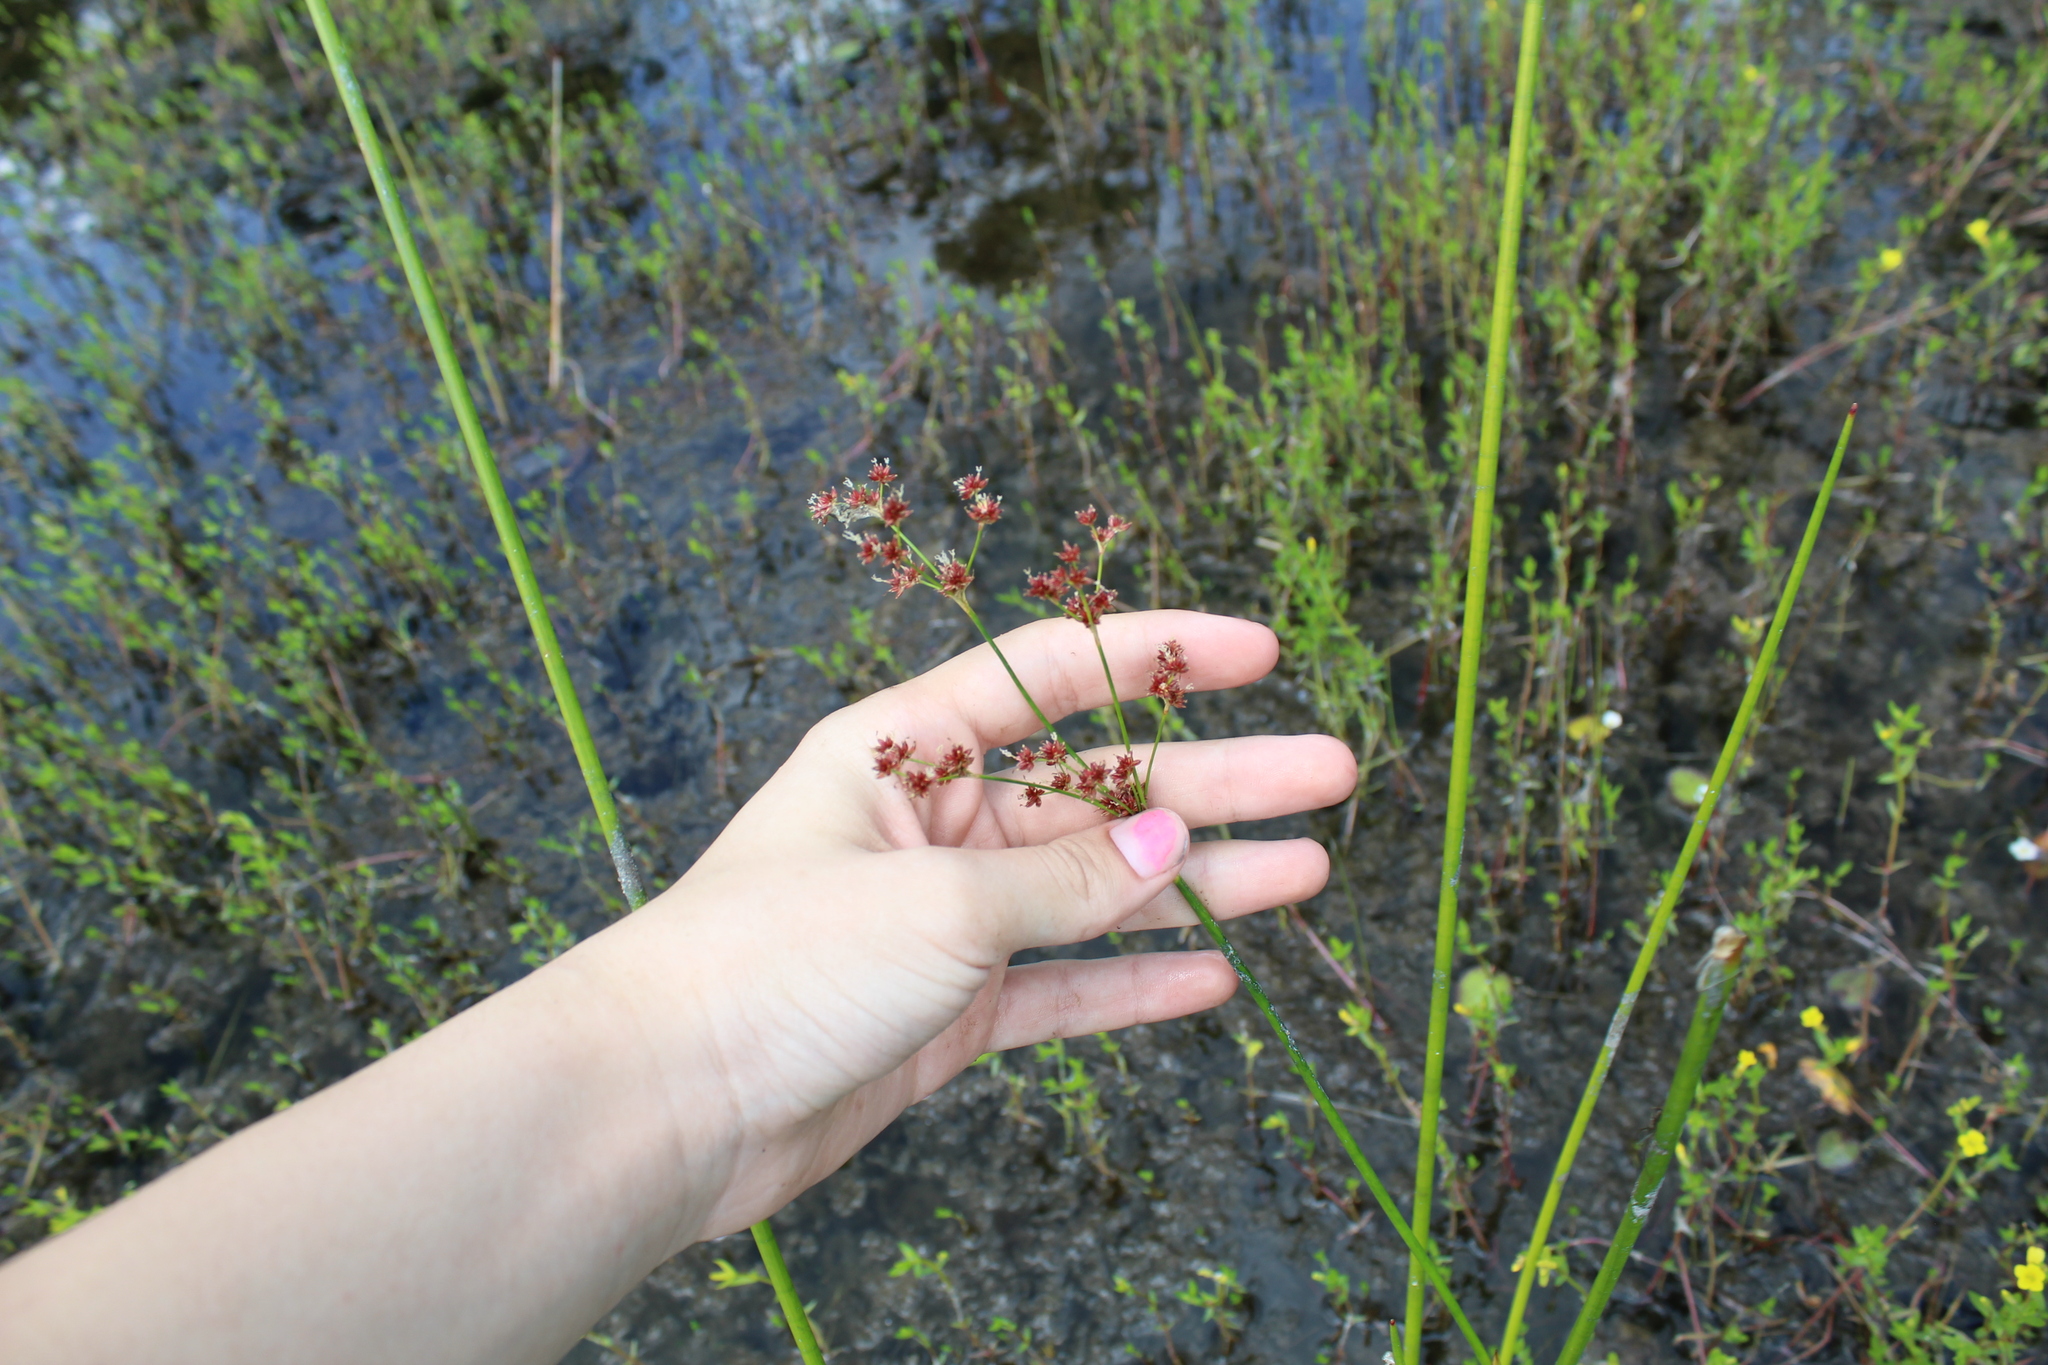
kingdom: Plantae
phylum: Tracheophyta
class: Liliopsida
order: Poales
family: Juncaceae
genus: Juncus
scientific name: Juncus militaris
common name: Bayonet rush
